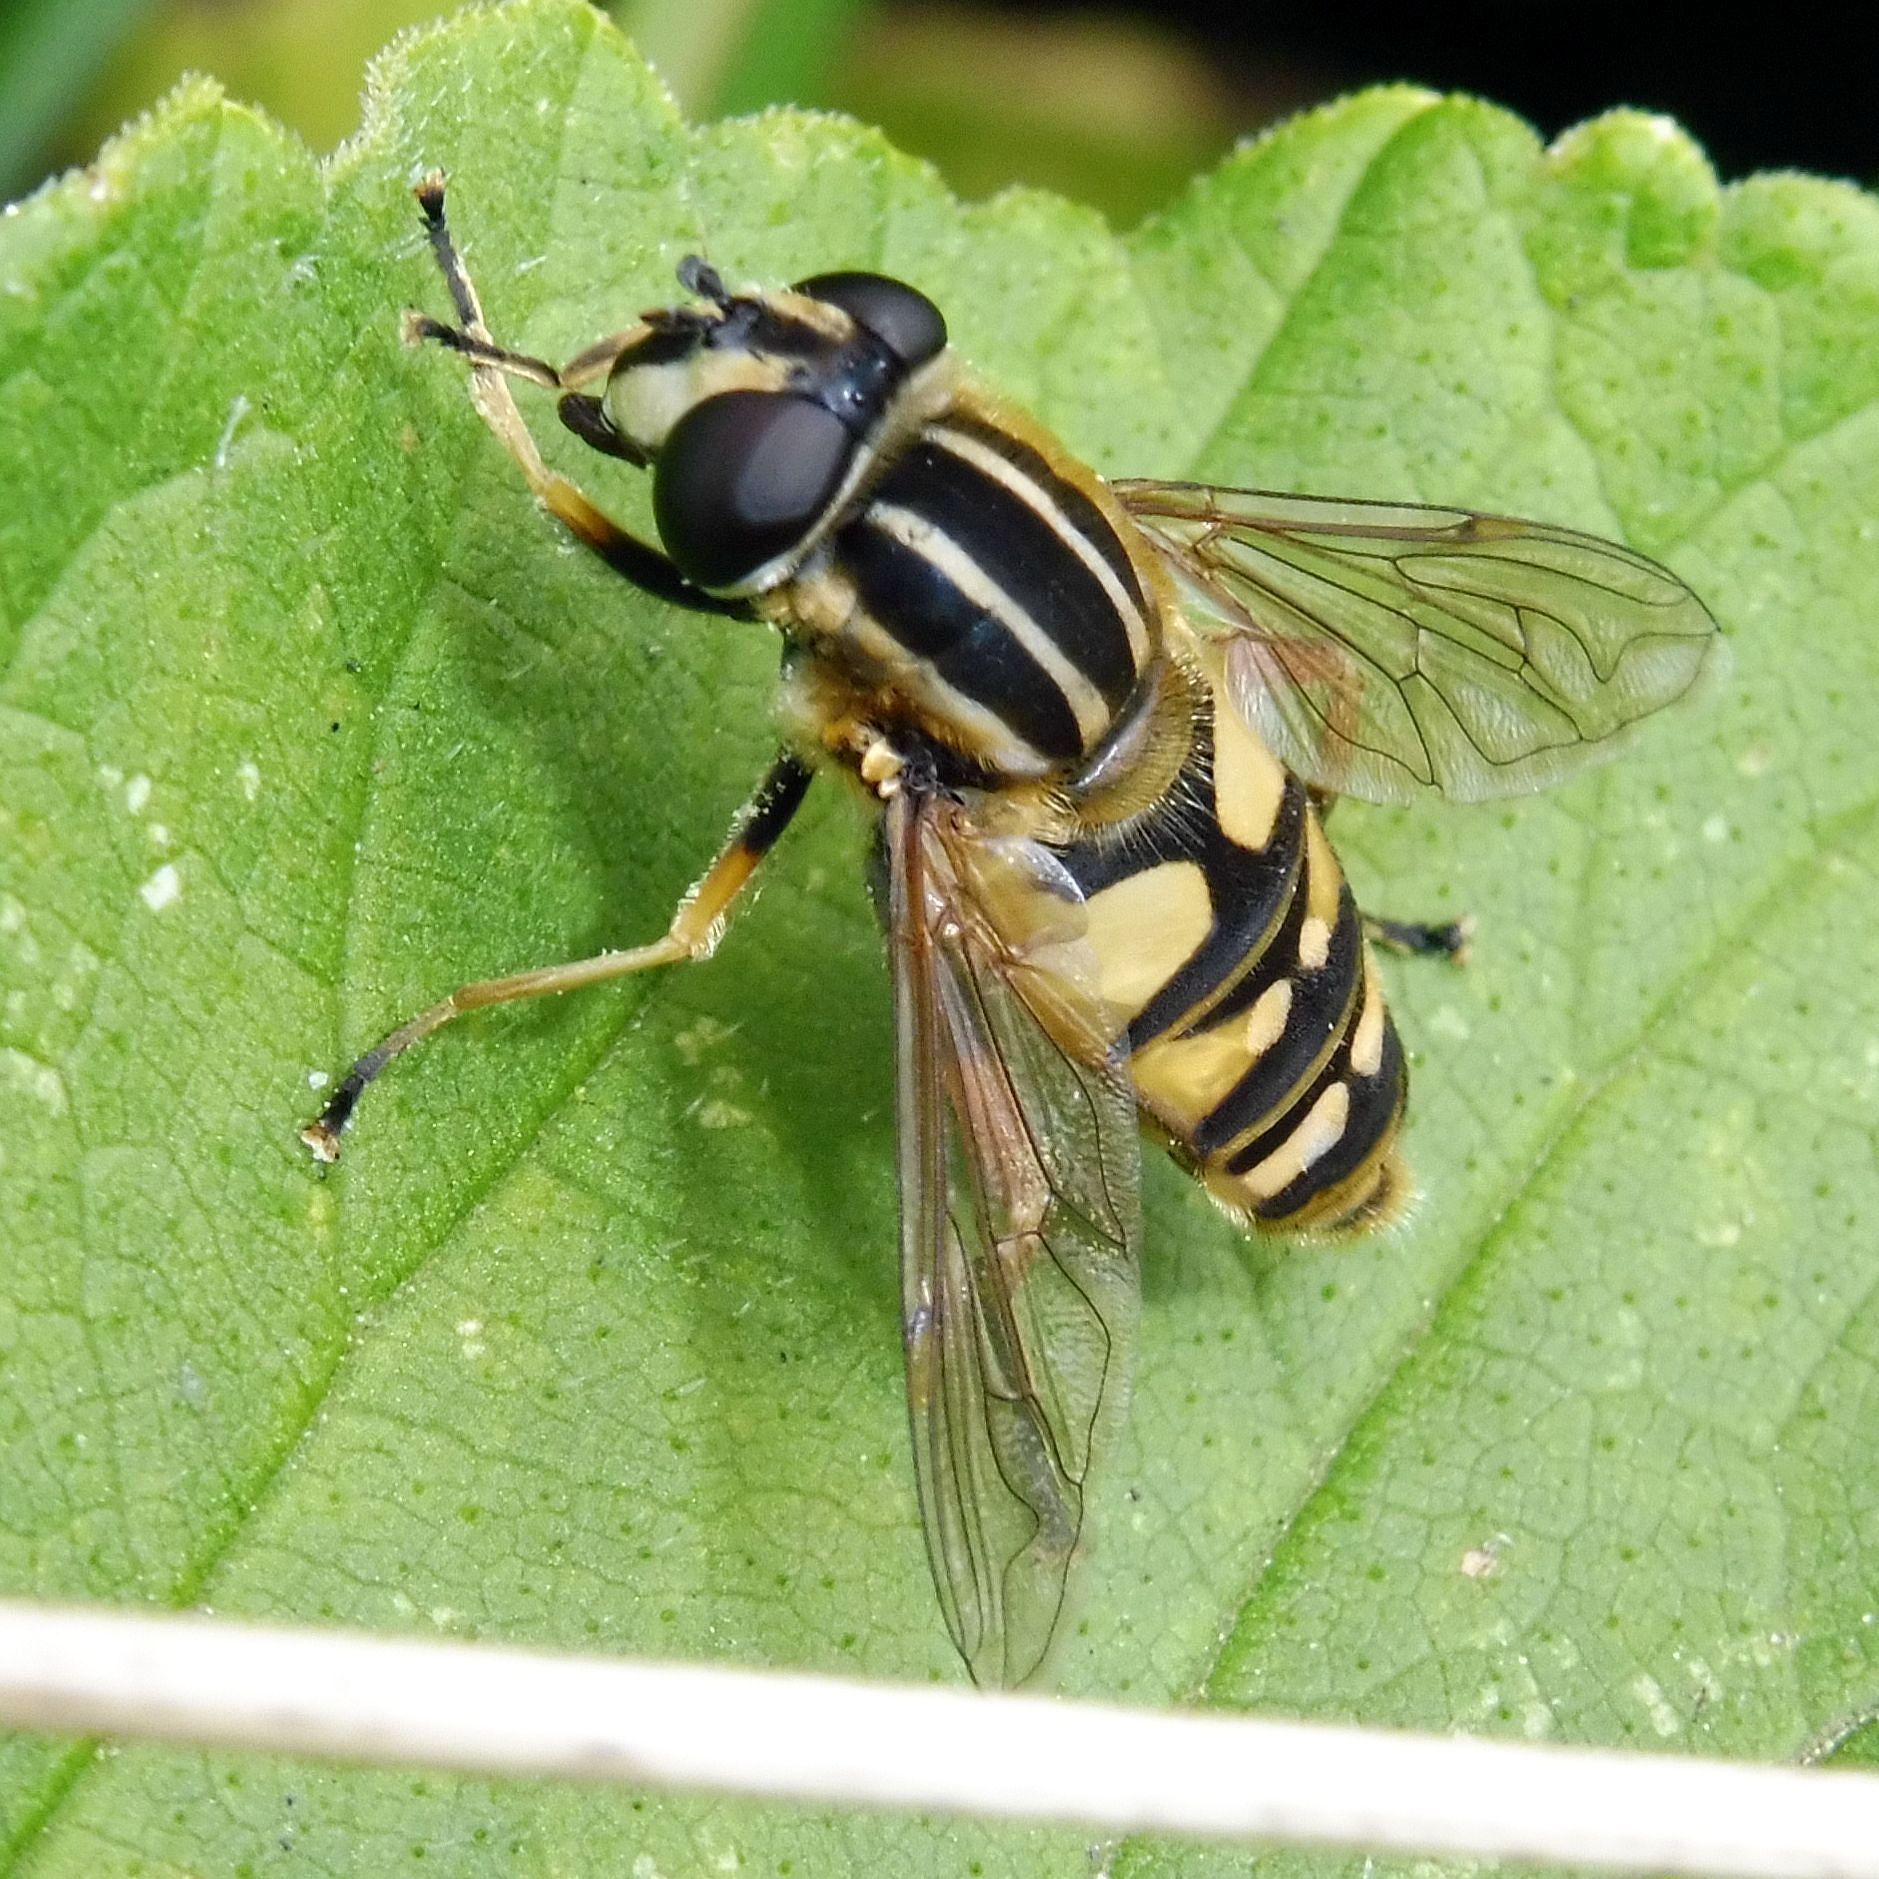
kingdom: Animalia
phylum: Arthropoda
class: Insecta
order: Diptera
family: Syrphidae
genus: Helophilus
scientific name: Helophilus pendulus
